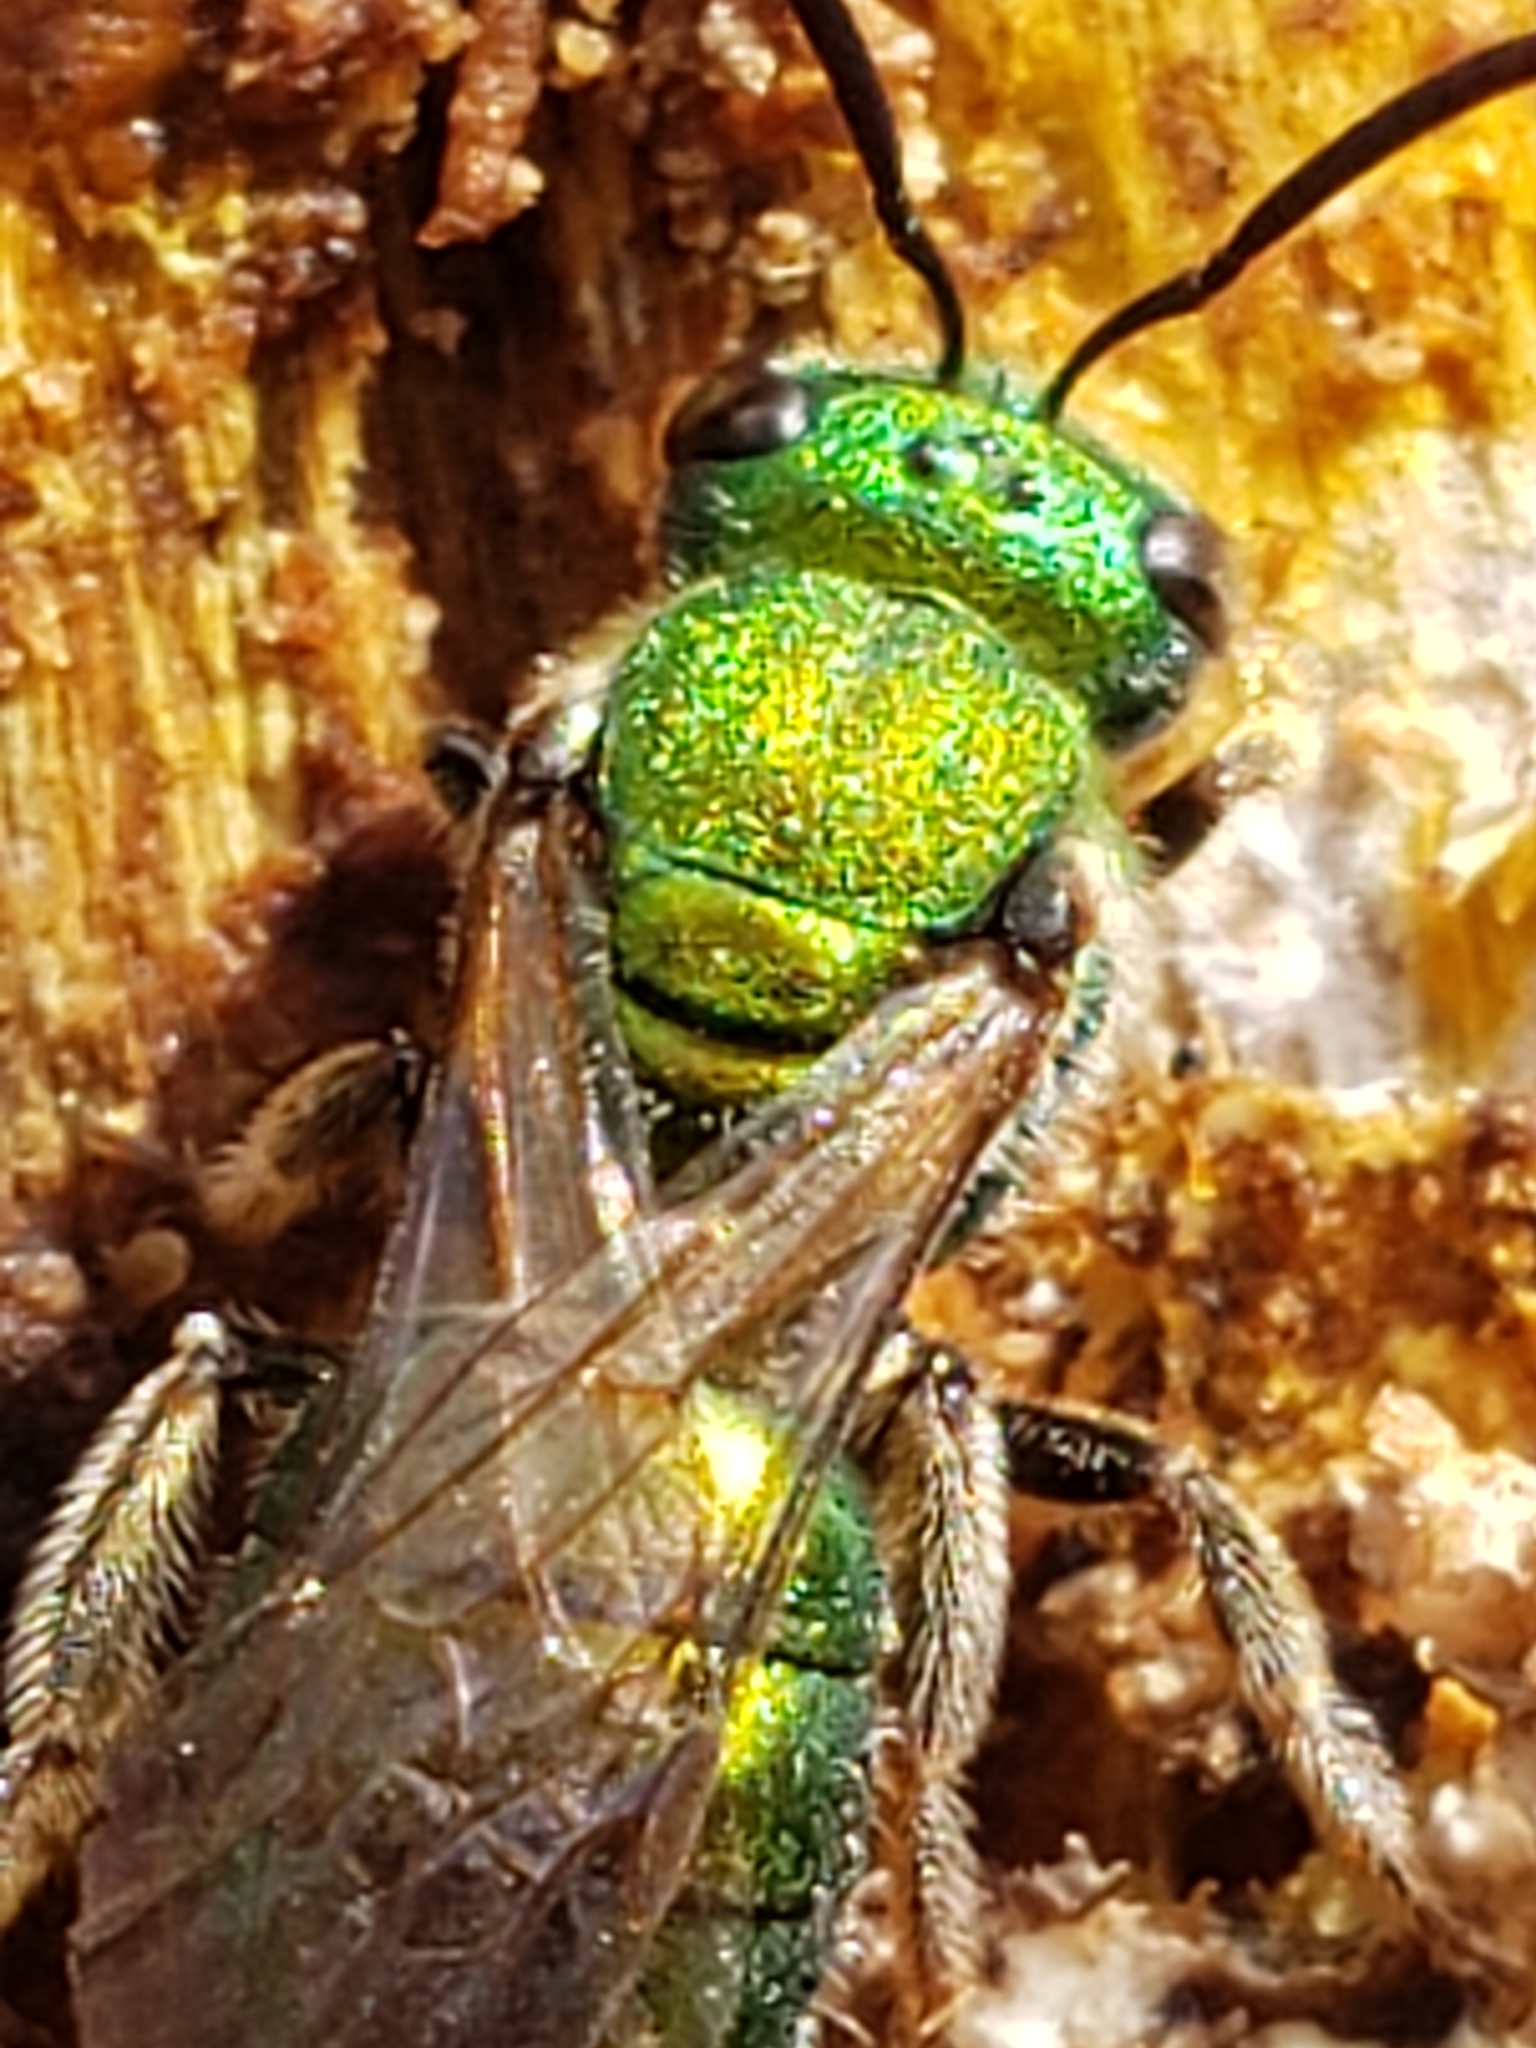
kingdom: Animalia
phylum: Arthropoda
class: Insecta
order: Hymenoptera
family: Halictidae
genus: Augochlora
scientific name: Augochlora pura
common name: Pure green sweat bee
